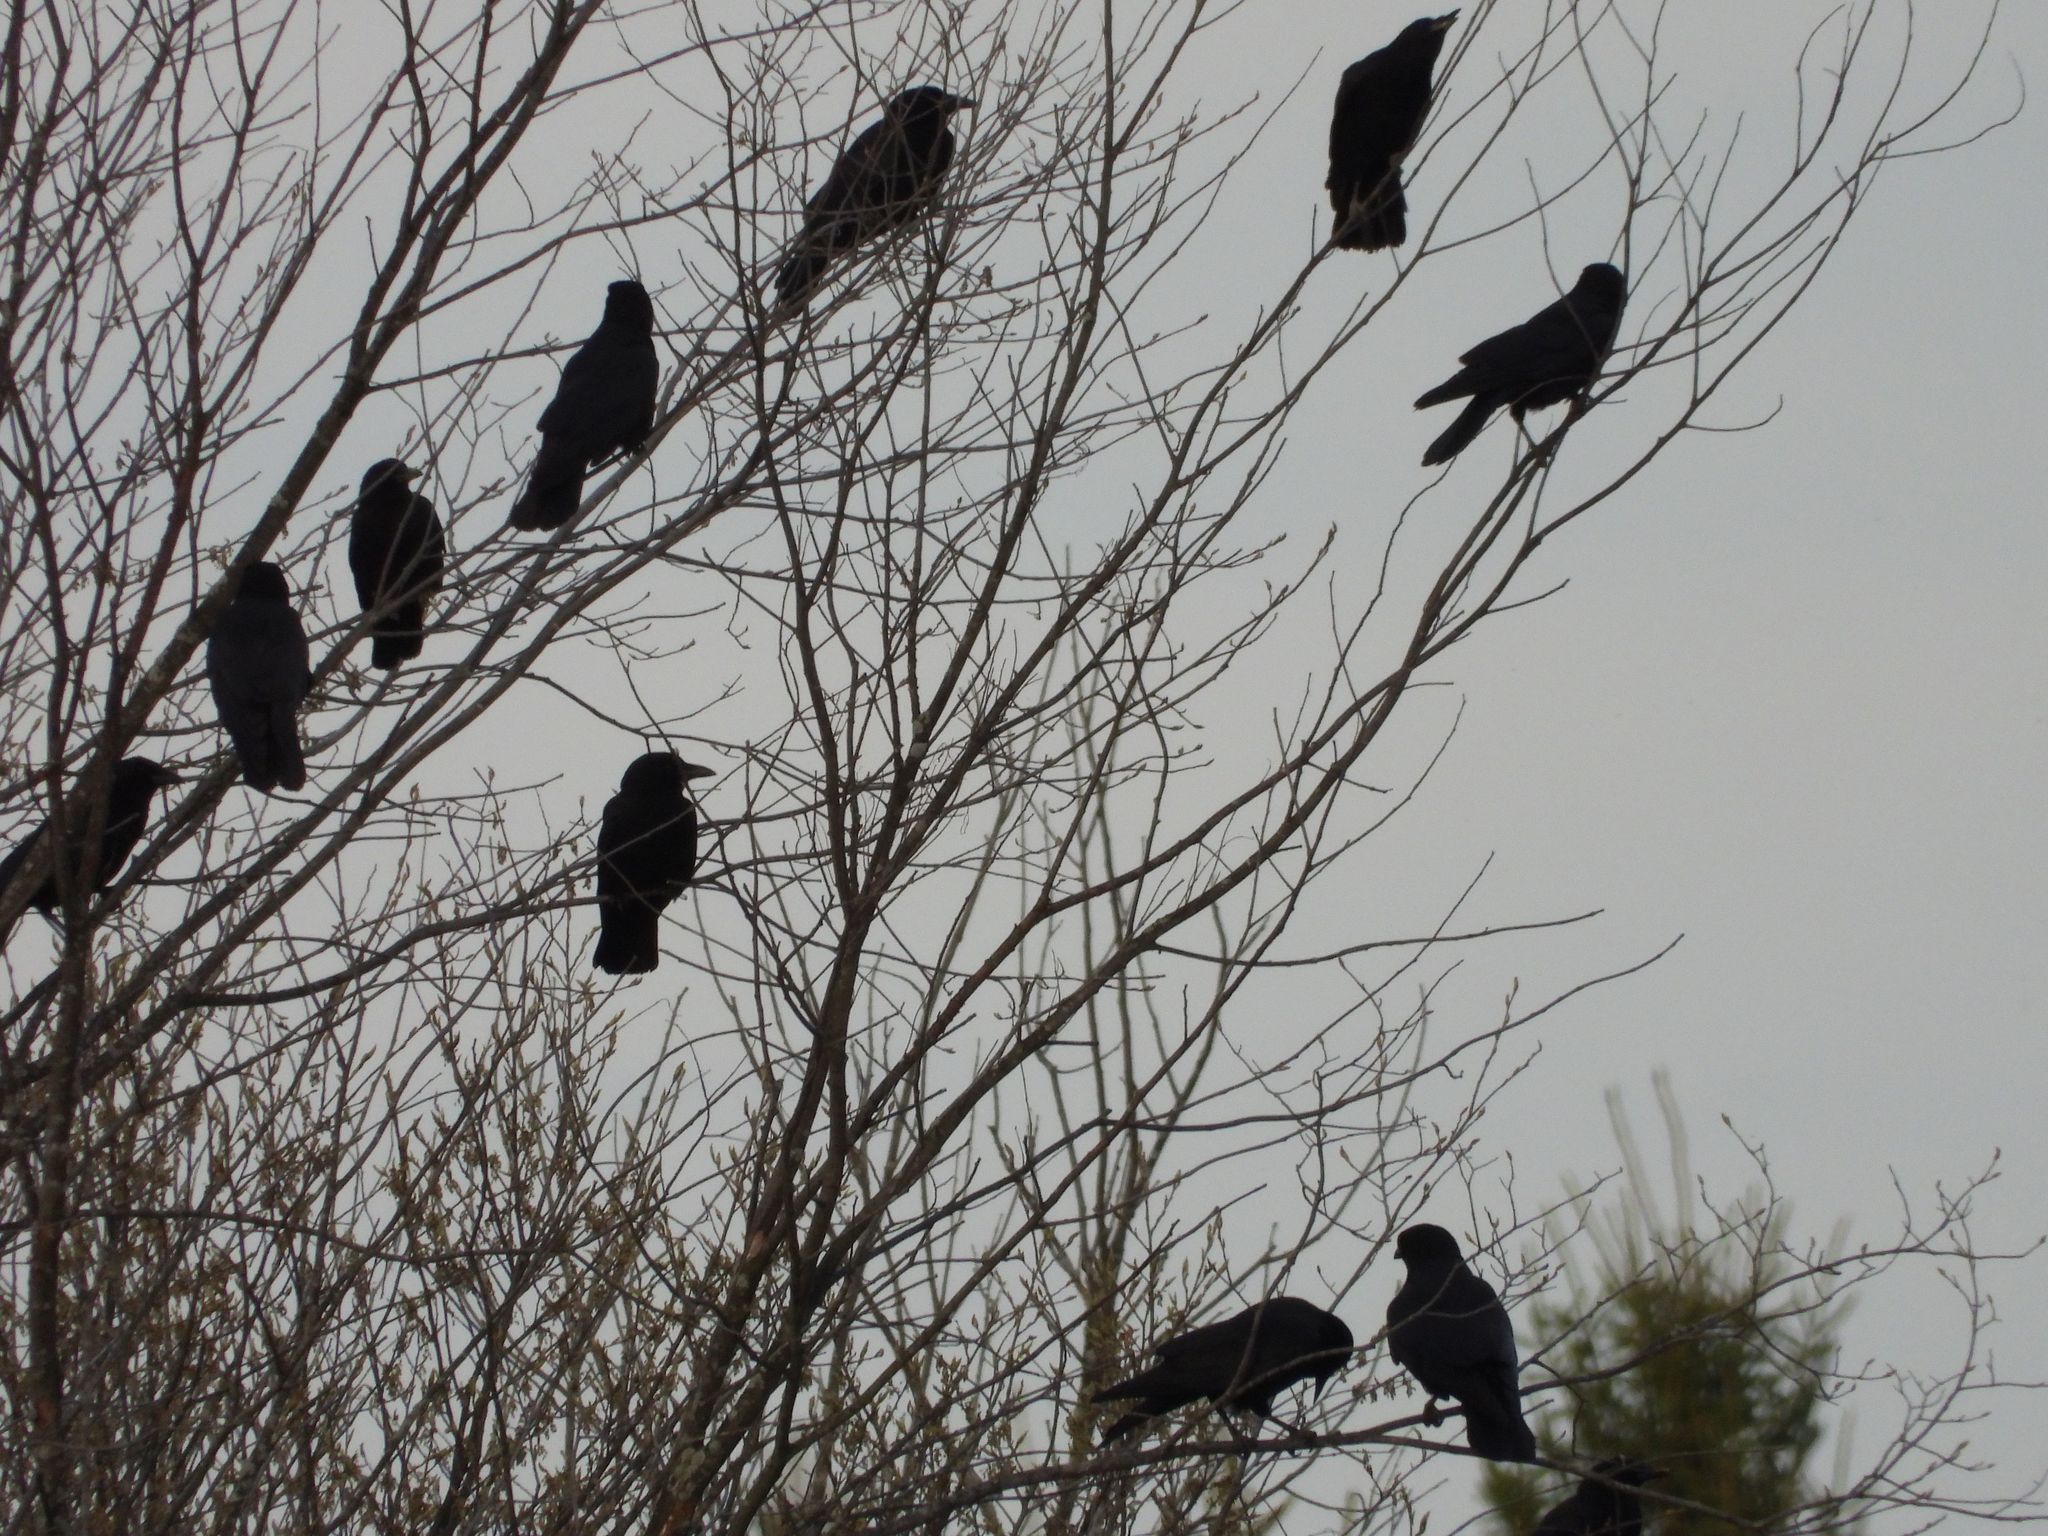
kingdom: Animalia
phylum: Chordata
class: Aves
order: Passeriformes
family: Corvidae
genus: Corvus
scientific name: Corvus brachyrhynchos
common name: American crow
